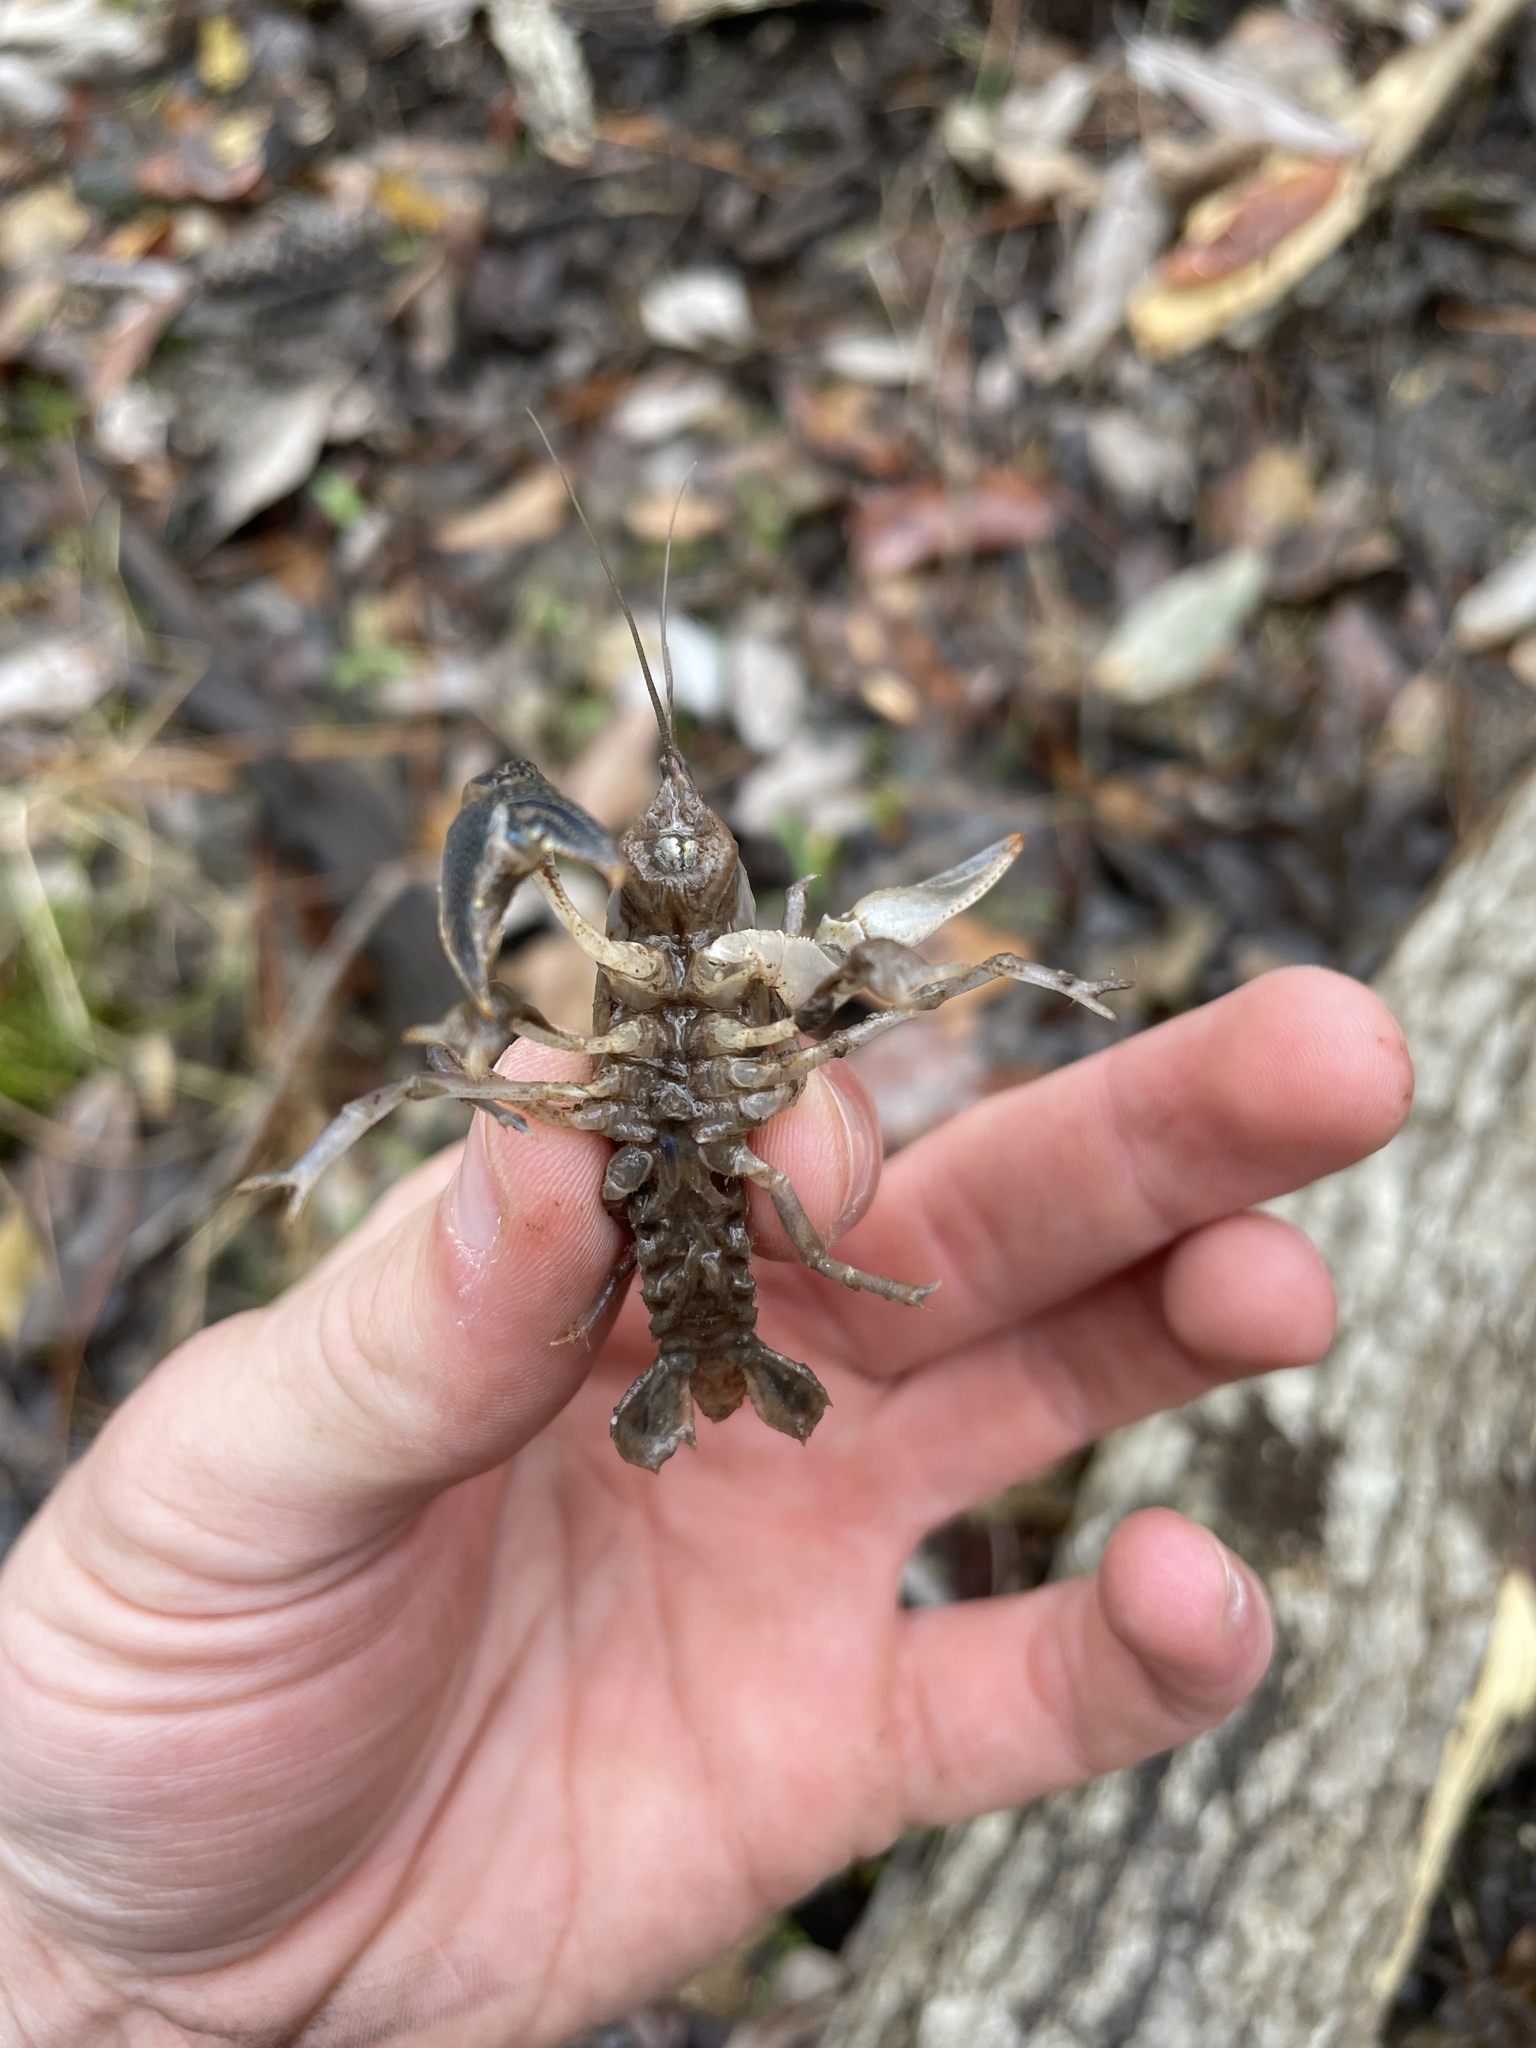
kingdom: Animalia
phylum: Arthropoda
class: Malacostraca
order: Decapoda
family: Cambaridae
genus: Creaserinus
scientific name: Creaserinus oryktes
